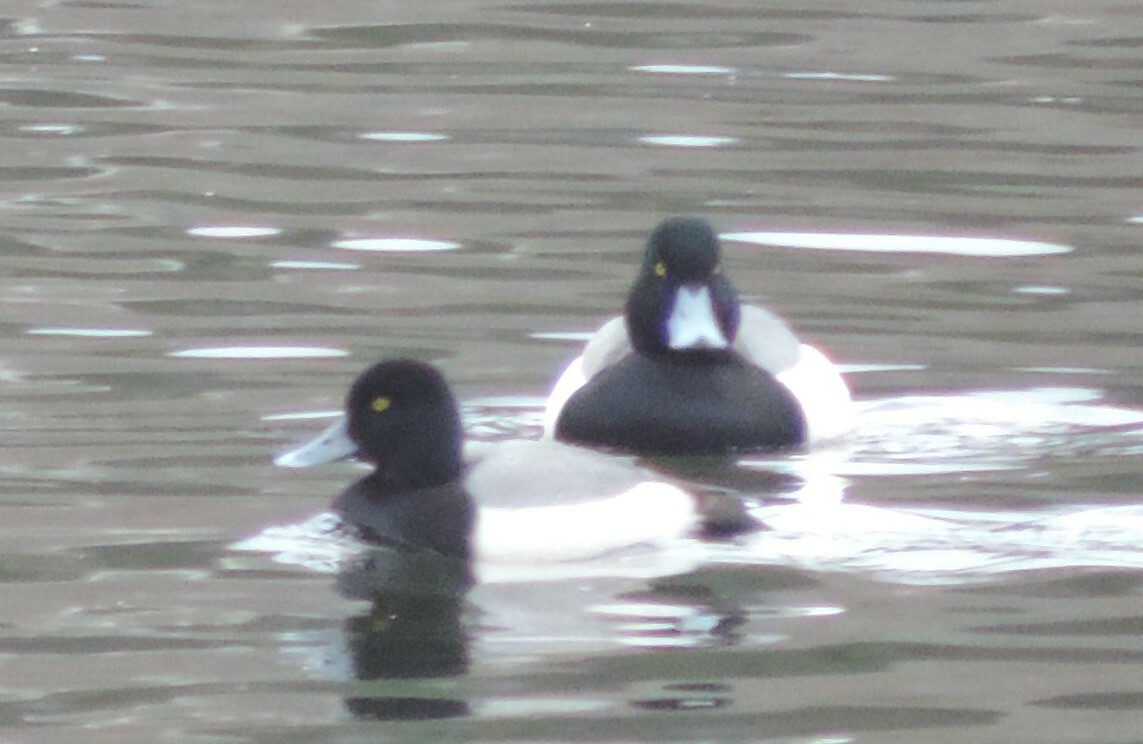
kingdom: Animalia
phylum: Chordata
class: Aves
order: Anseriformes
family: Anatidae
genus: Aythya
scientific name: Aythya affinis
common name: Lesser scaup
